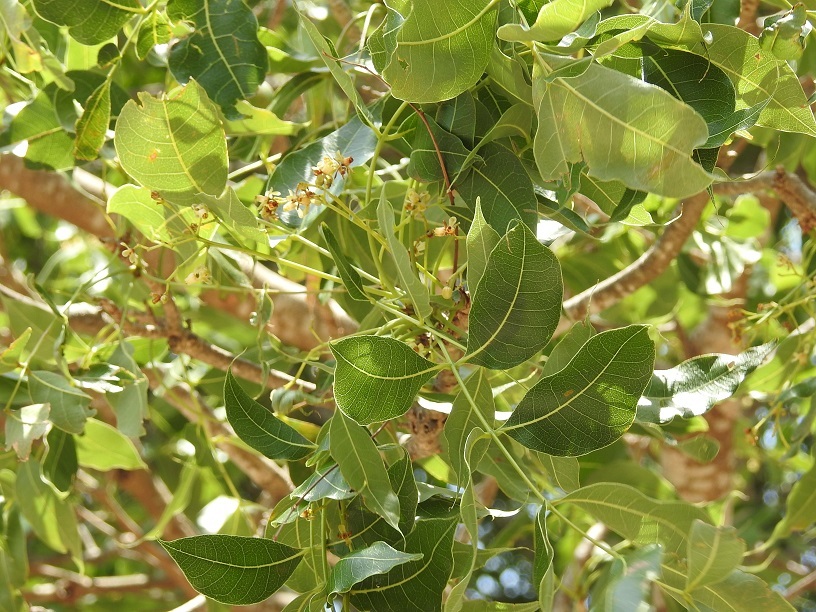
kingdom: Plantae
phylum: Tracheophyta
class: Magnoliopsida
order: Sapindales
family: Meliaceae
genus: Swietenia
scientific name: Swietenia humilis
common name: Pacific coast mahogany
